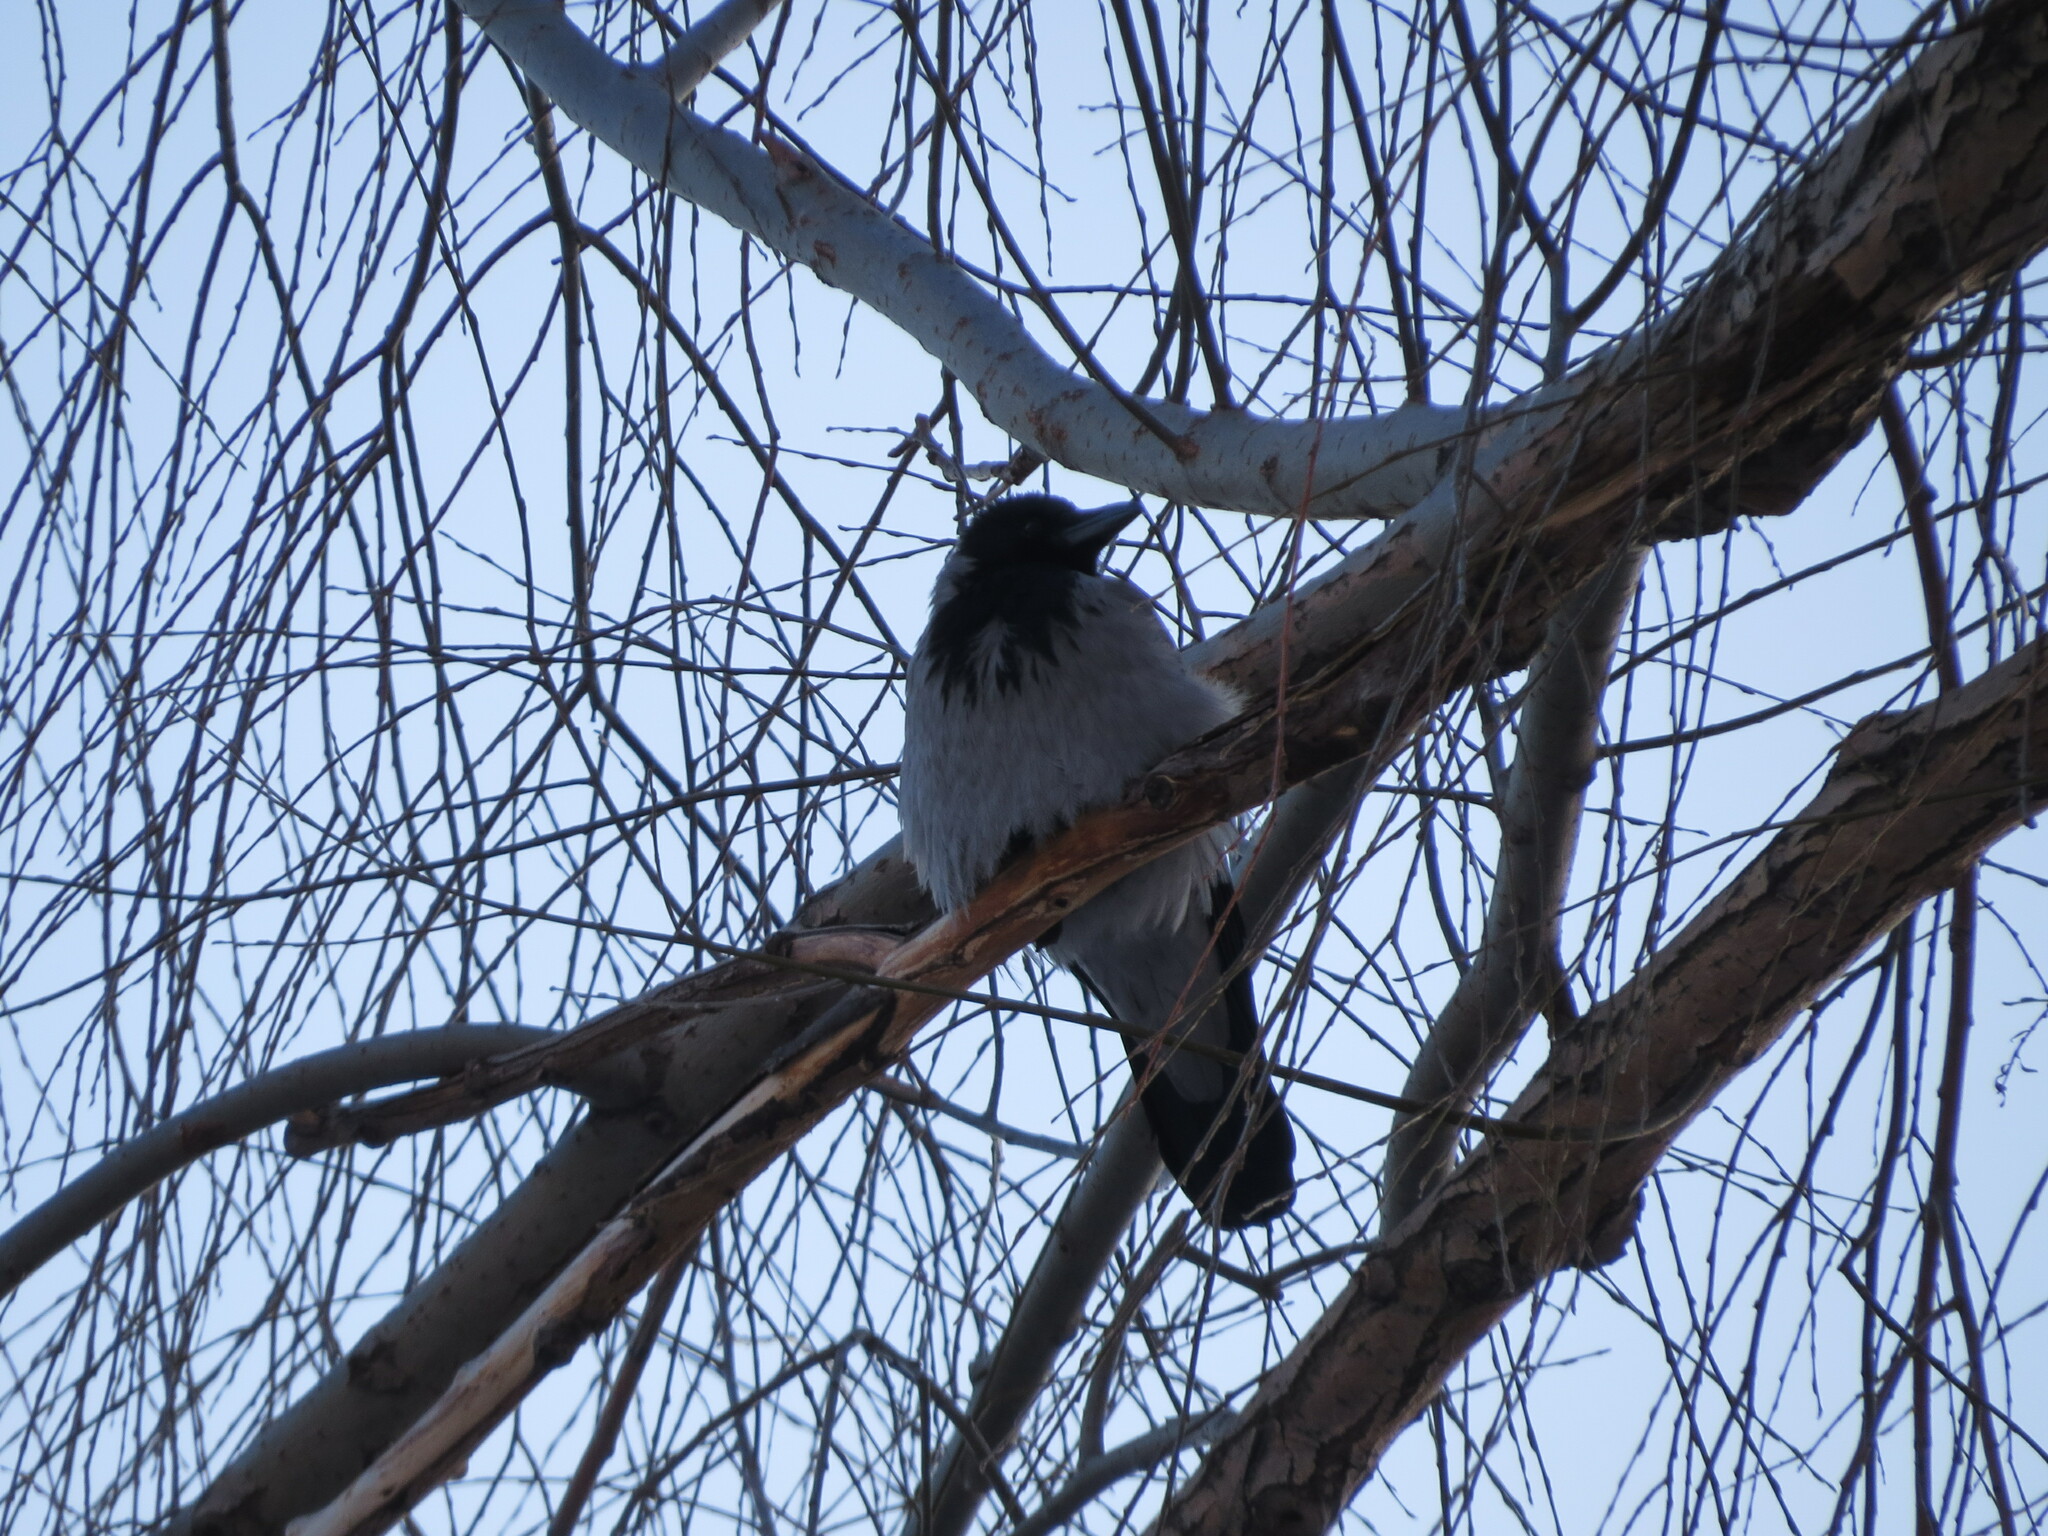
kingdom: Animalia
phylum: Chordata
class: Aves
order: Passeriformes
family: Corvidae
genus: Corvus
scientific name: Corvus cornix
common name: Hooded crow
